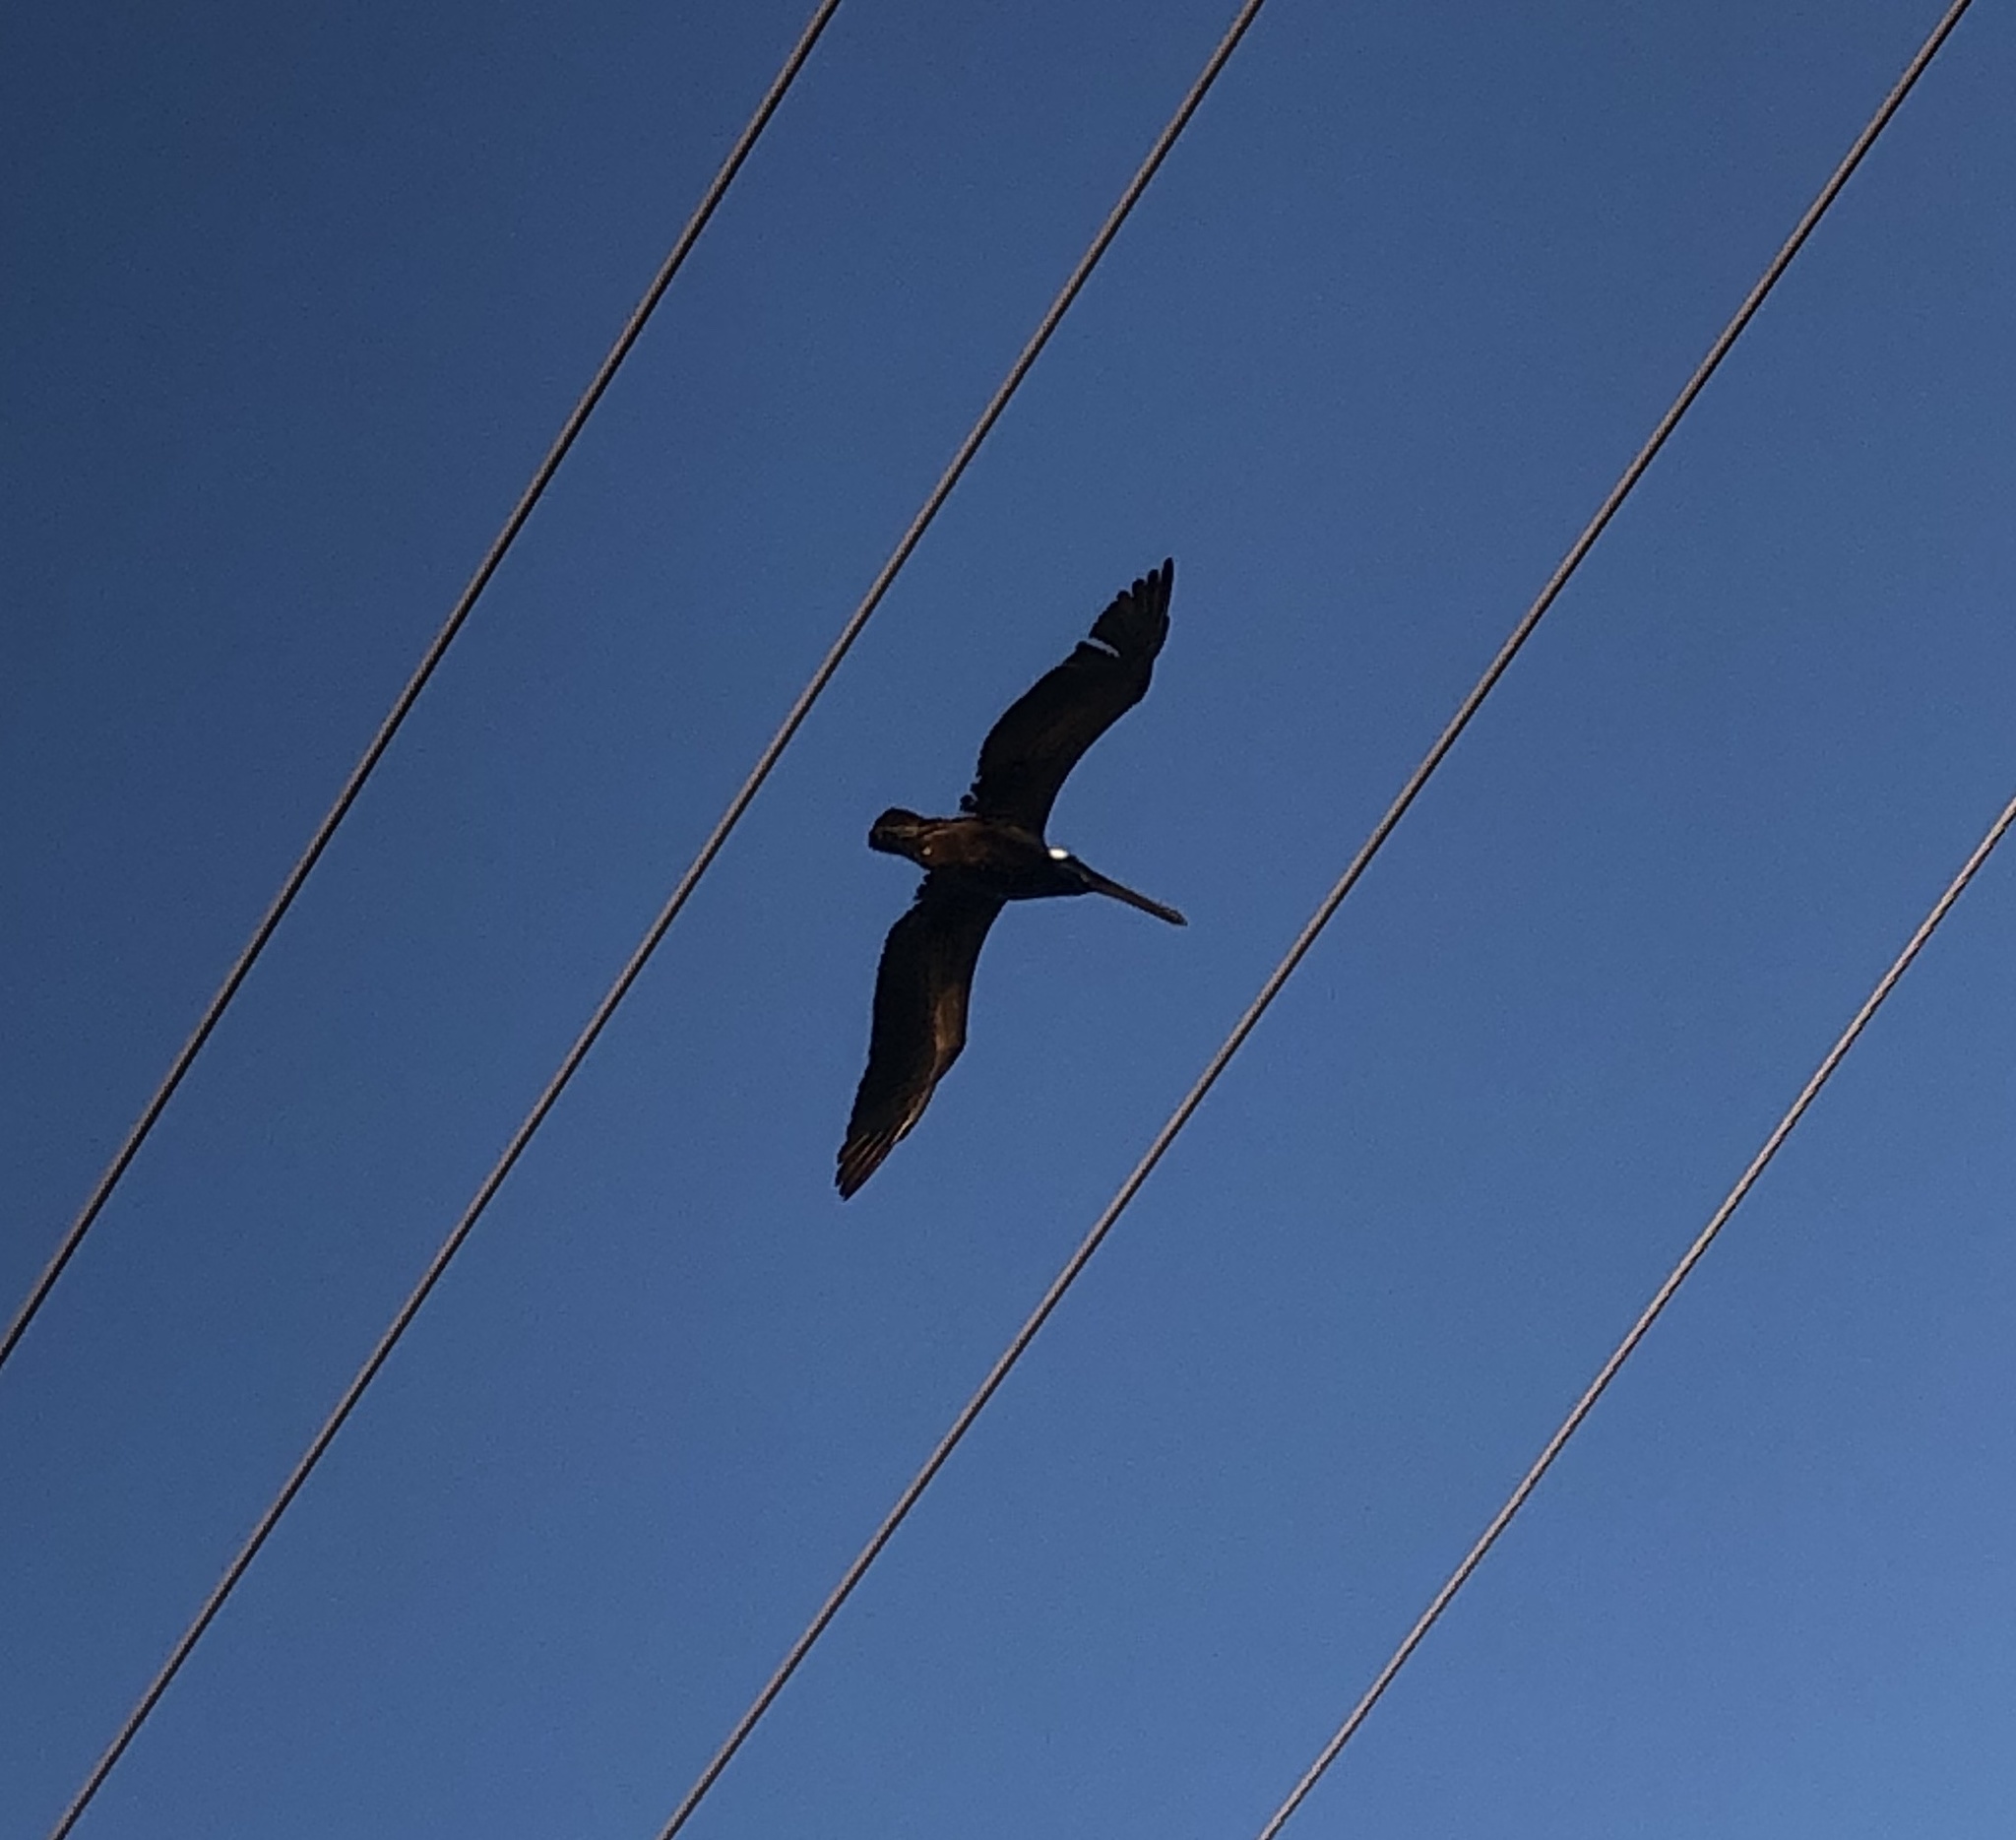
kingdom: Animalia
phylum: Chordata
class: Aves
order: Pelecaniformes
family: Pelecanidae
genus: Pelecanus
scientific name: Pelecanus occidentalis
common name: Brown pelican
